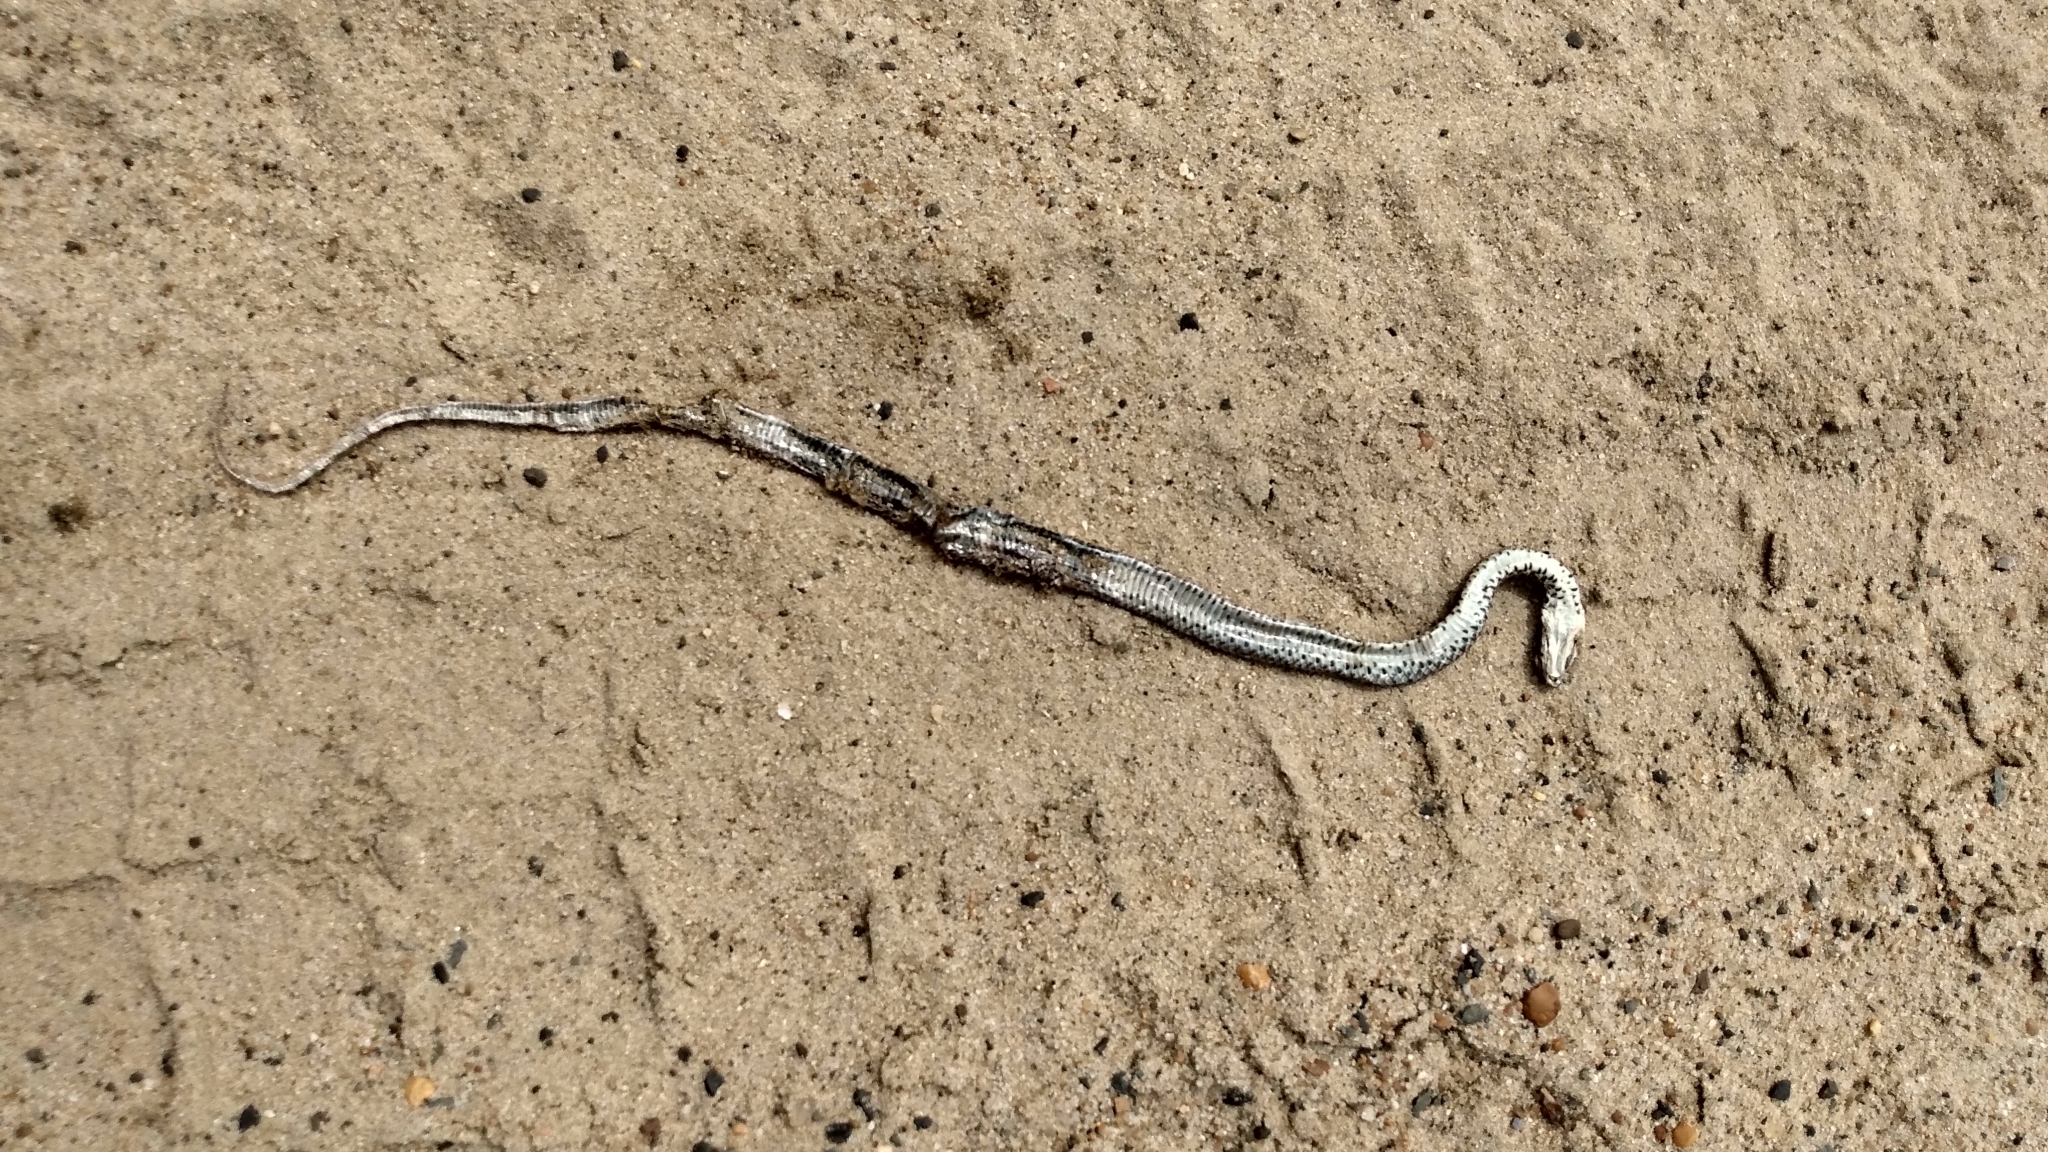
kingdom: Animalia
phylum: Chordata
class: Squamata
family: Colubridae
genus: Coluber
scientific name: Coluber constrictor
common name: Eastern racer
